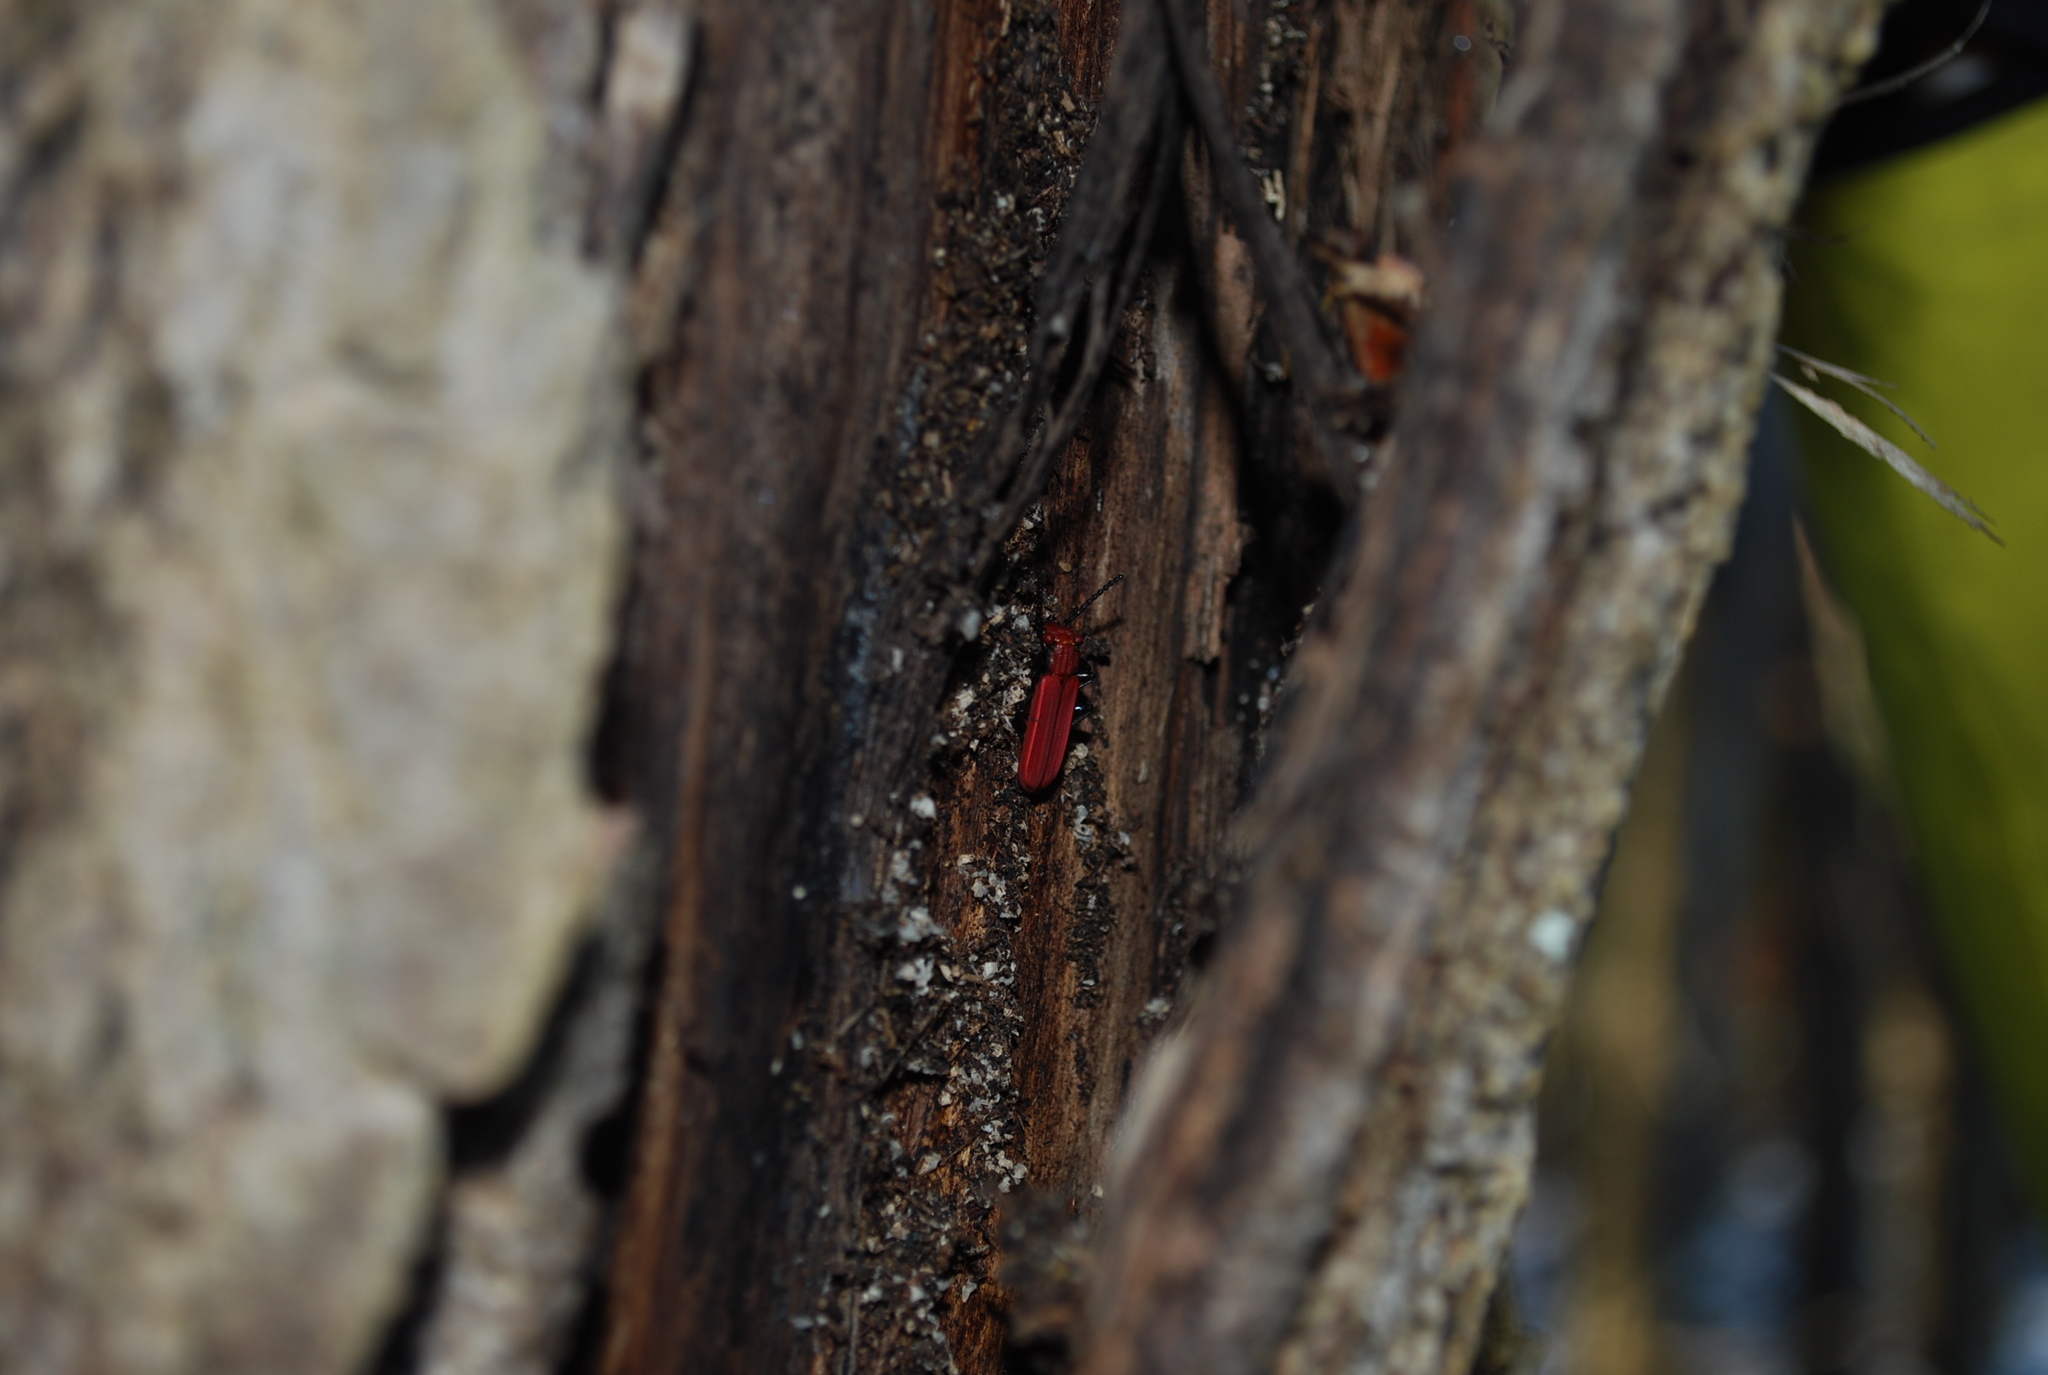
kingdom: Animalia
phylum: Arthropoda
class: Insecta
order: Coleoptera
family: Cucujidae
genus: Cucujus
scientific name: Cucujus cinnaberinus
